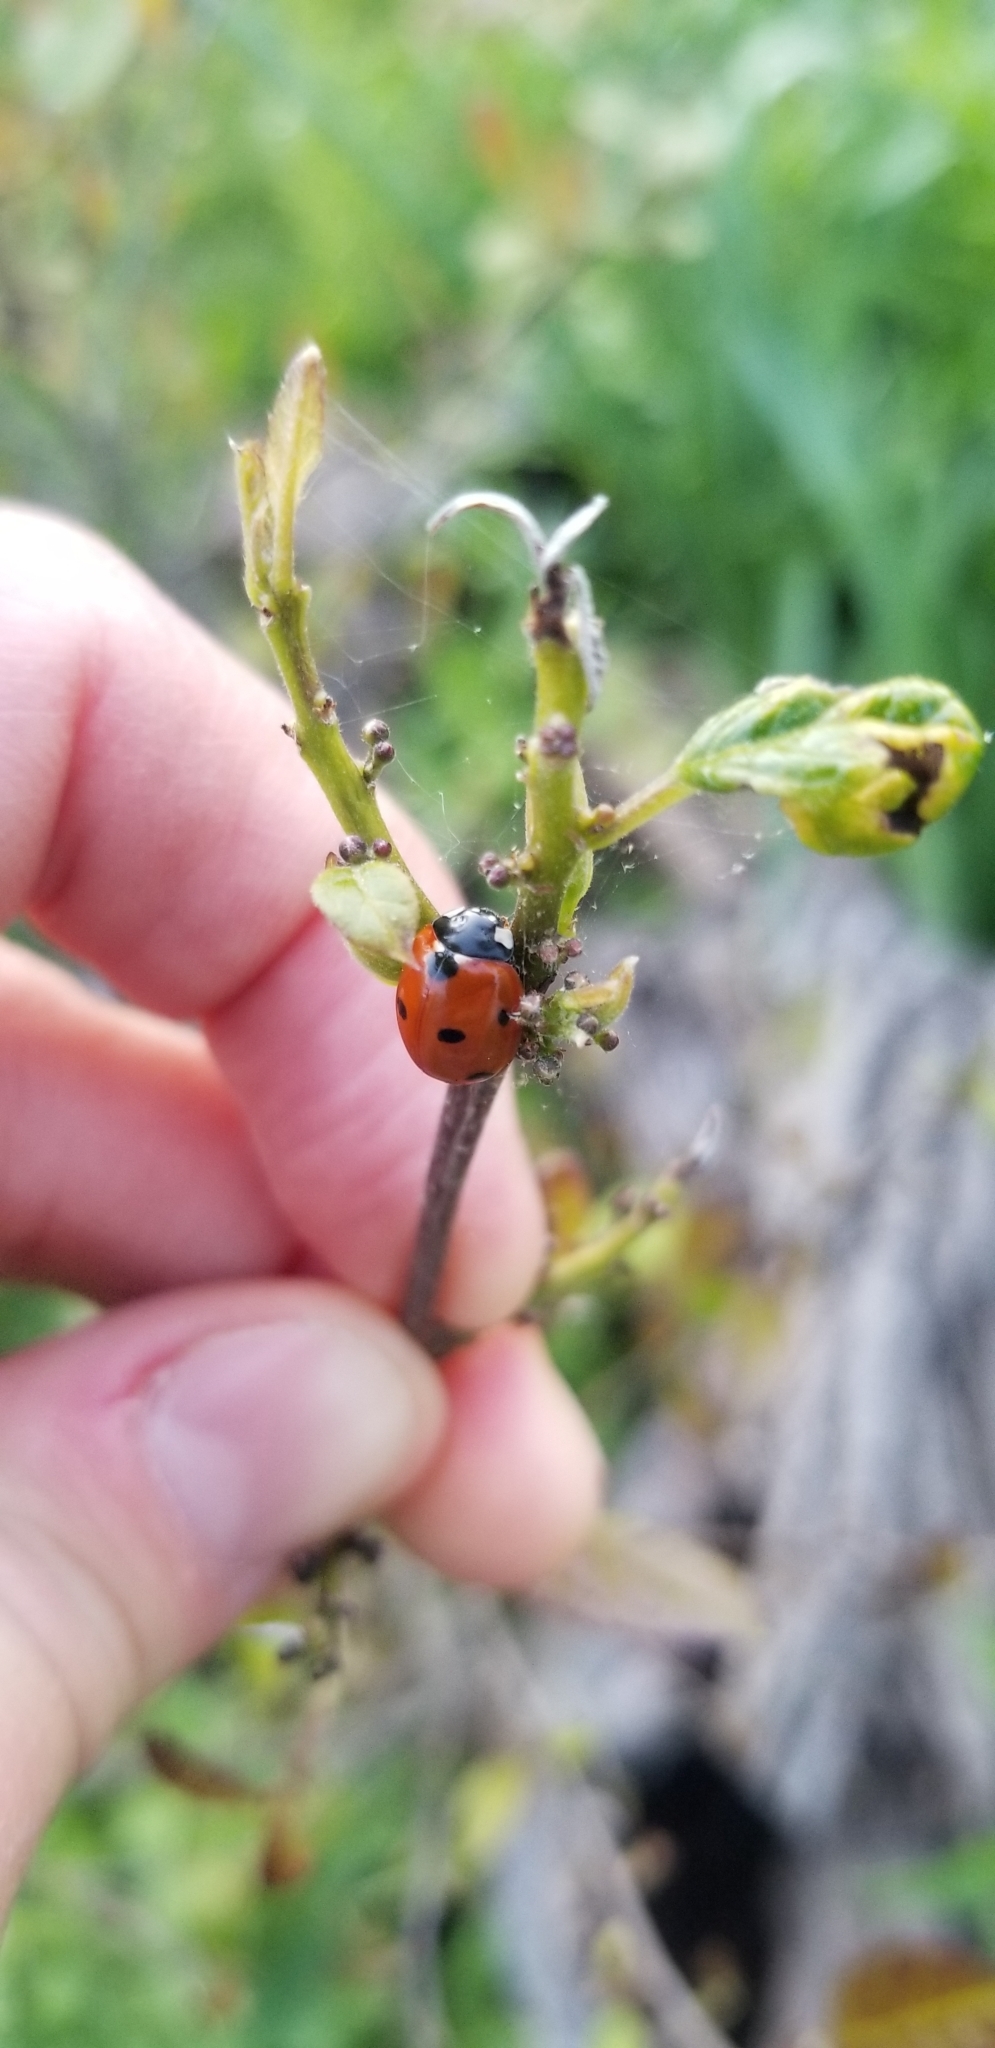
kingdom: Animalia
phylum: Arthropoda
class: Insecta
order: Coleoptera
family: Coccinellidae
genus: Coccinella
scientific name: Coccinella septempunctata
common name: Sevenspotted lady beetle
